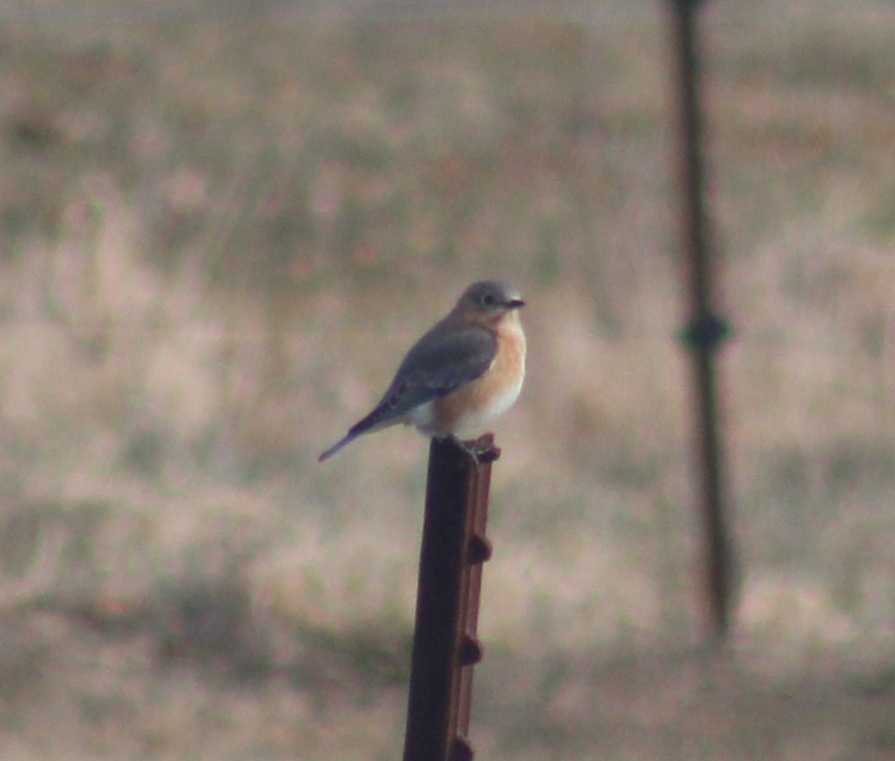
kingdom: Animalia
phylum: Chordata
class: Aves
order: Passeriformes
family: Turdidae
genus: Sialia
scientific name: Sialia sialis
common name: Eastern bluebird
